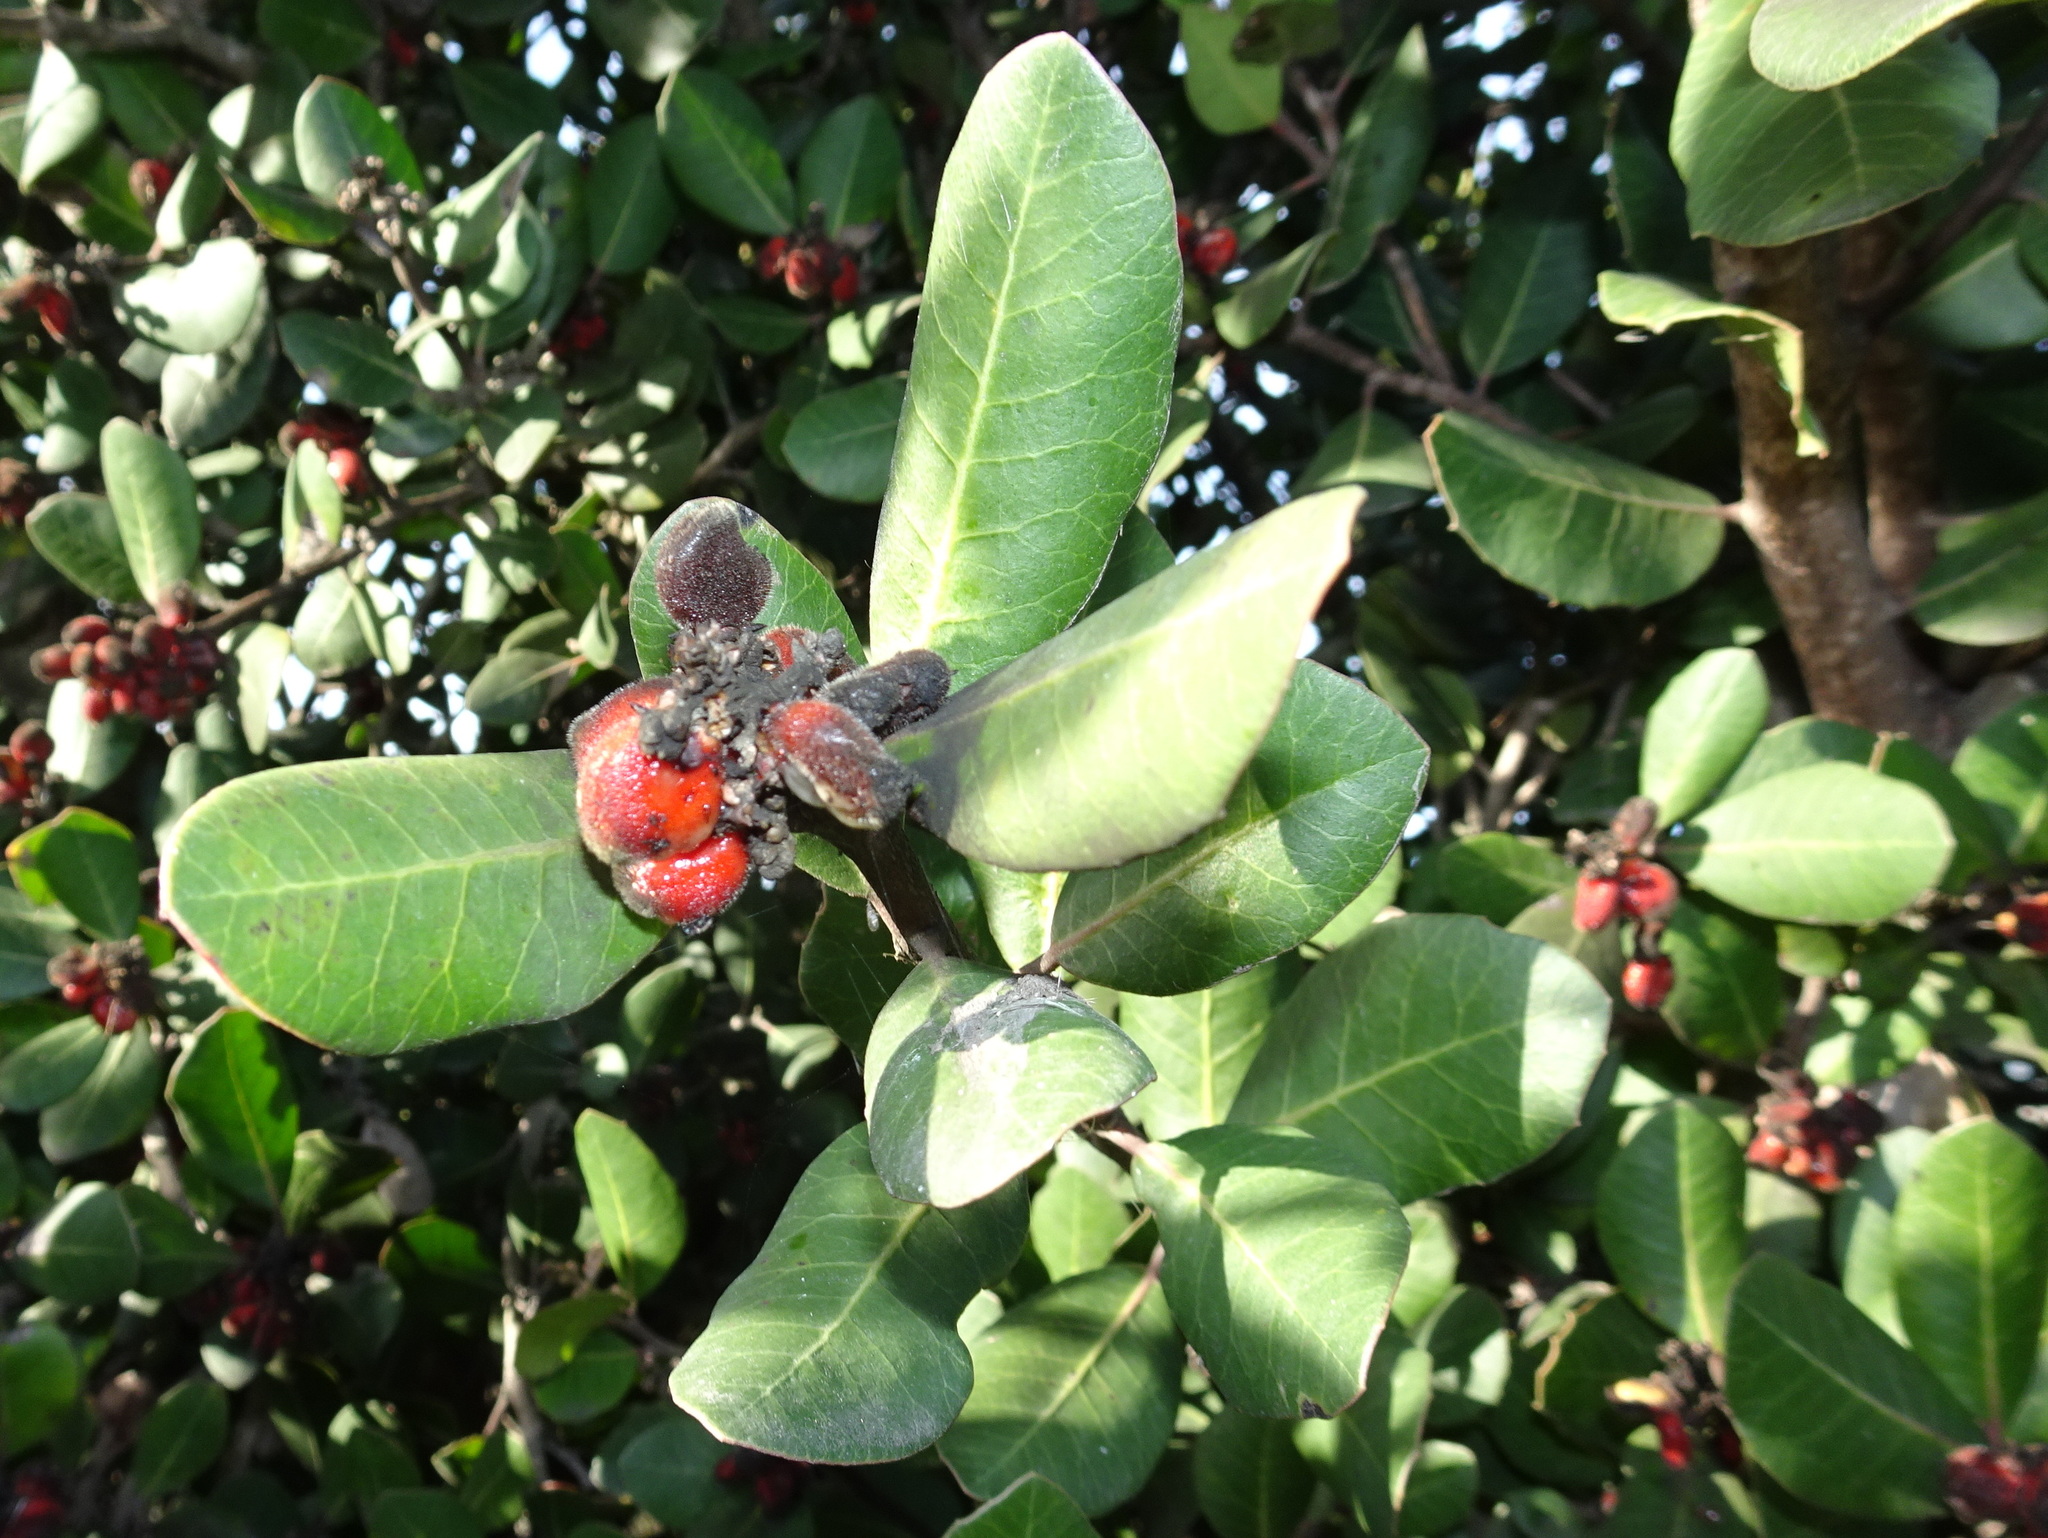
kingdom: Plantae
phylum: Tracheophyta
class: Magnoliopsida
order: Sapindales
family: Anacardiaceae
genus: Rhus
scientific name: Rhus integrifolia
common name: Lemonade sumac
